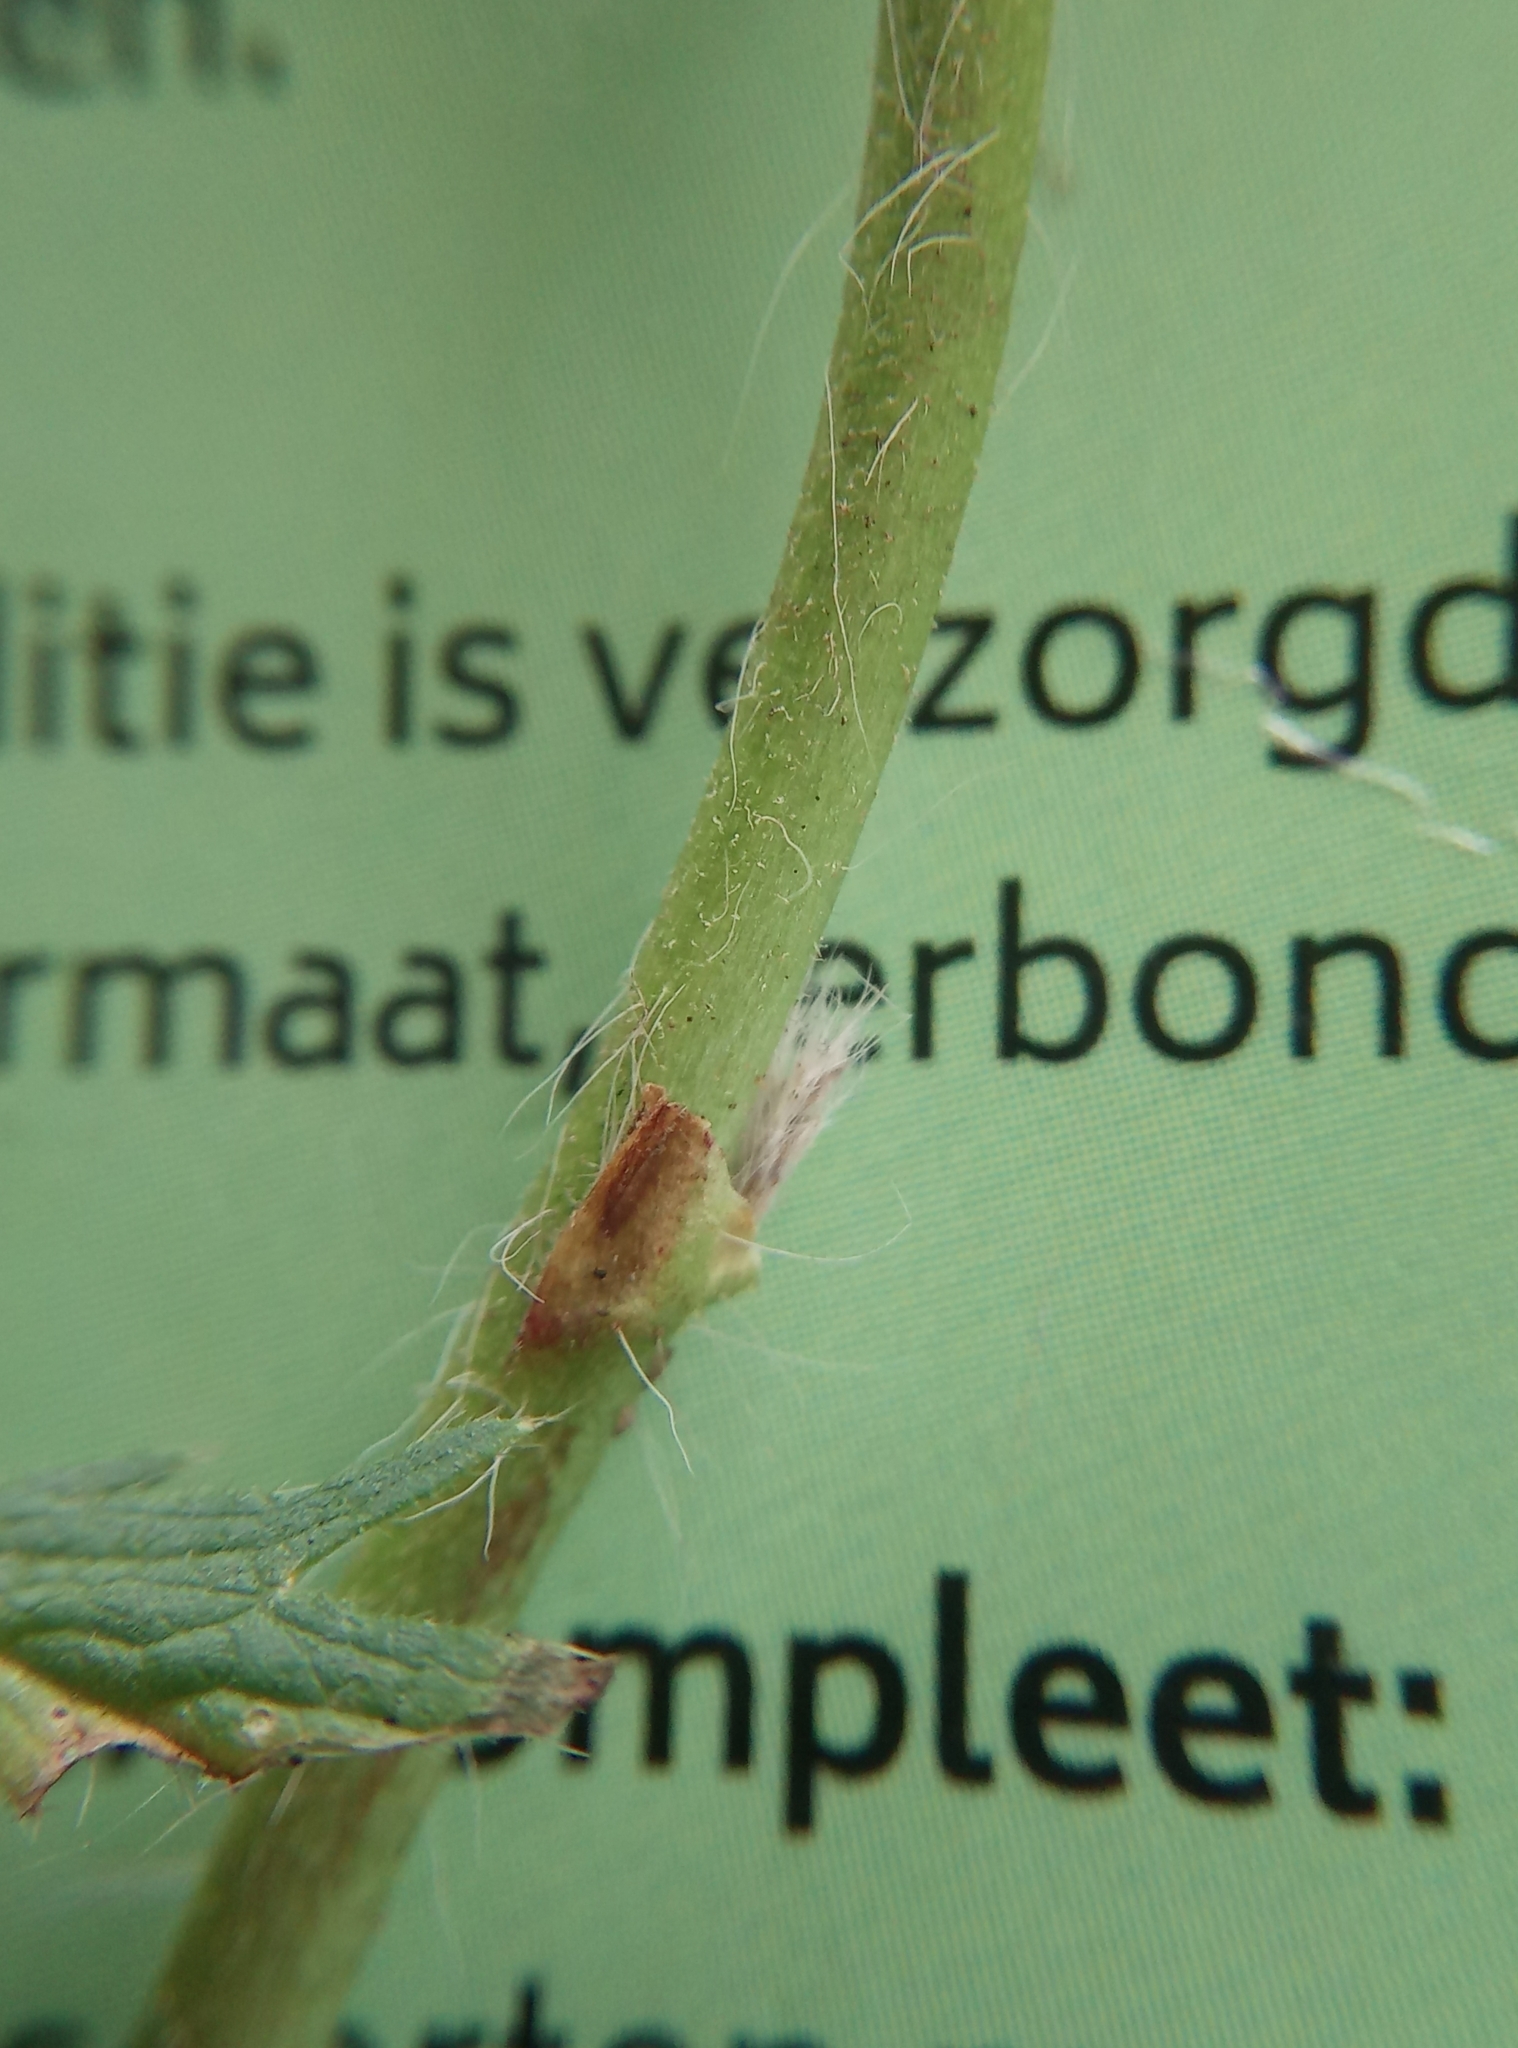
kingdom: Plantae
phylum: Tracheophyta
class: Magnoliopsida
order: Rosales
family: Rosaceae
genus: Potentilla
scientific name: Potentilla recta
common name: Sulphur cinquefoil
